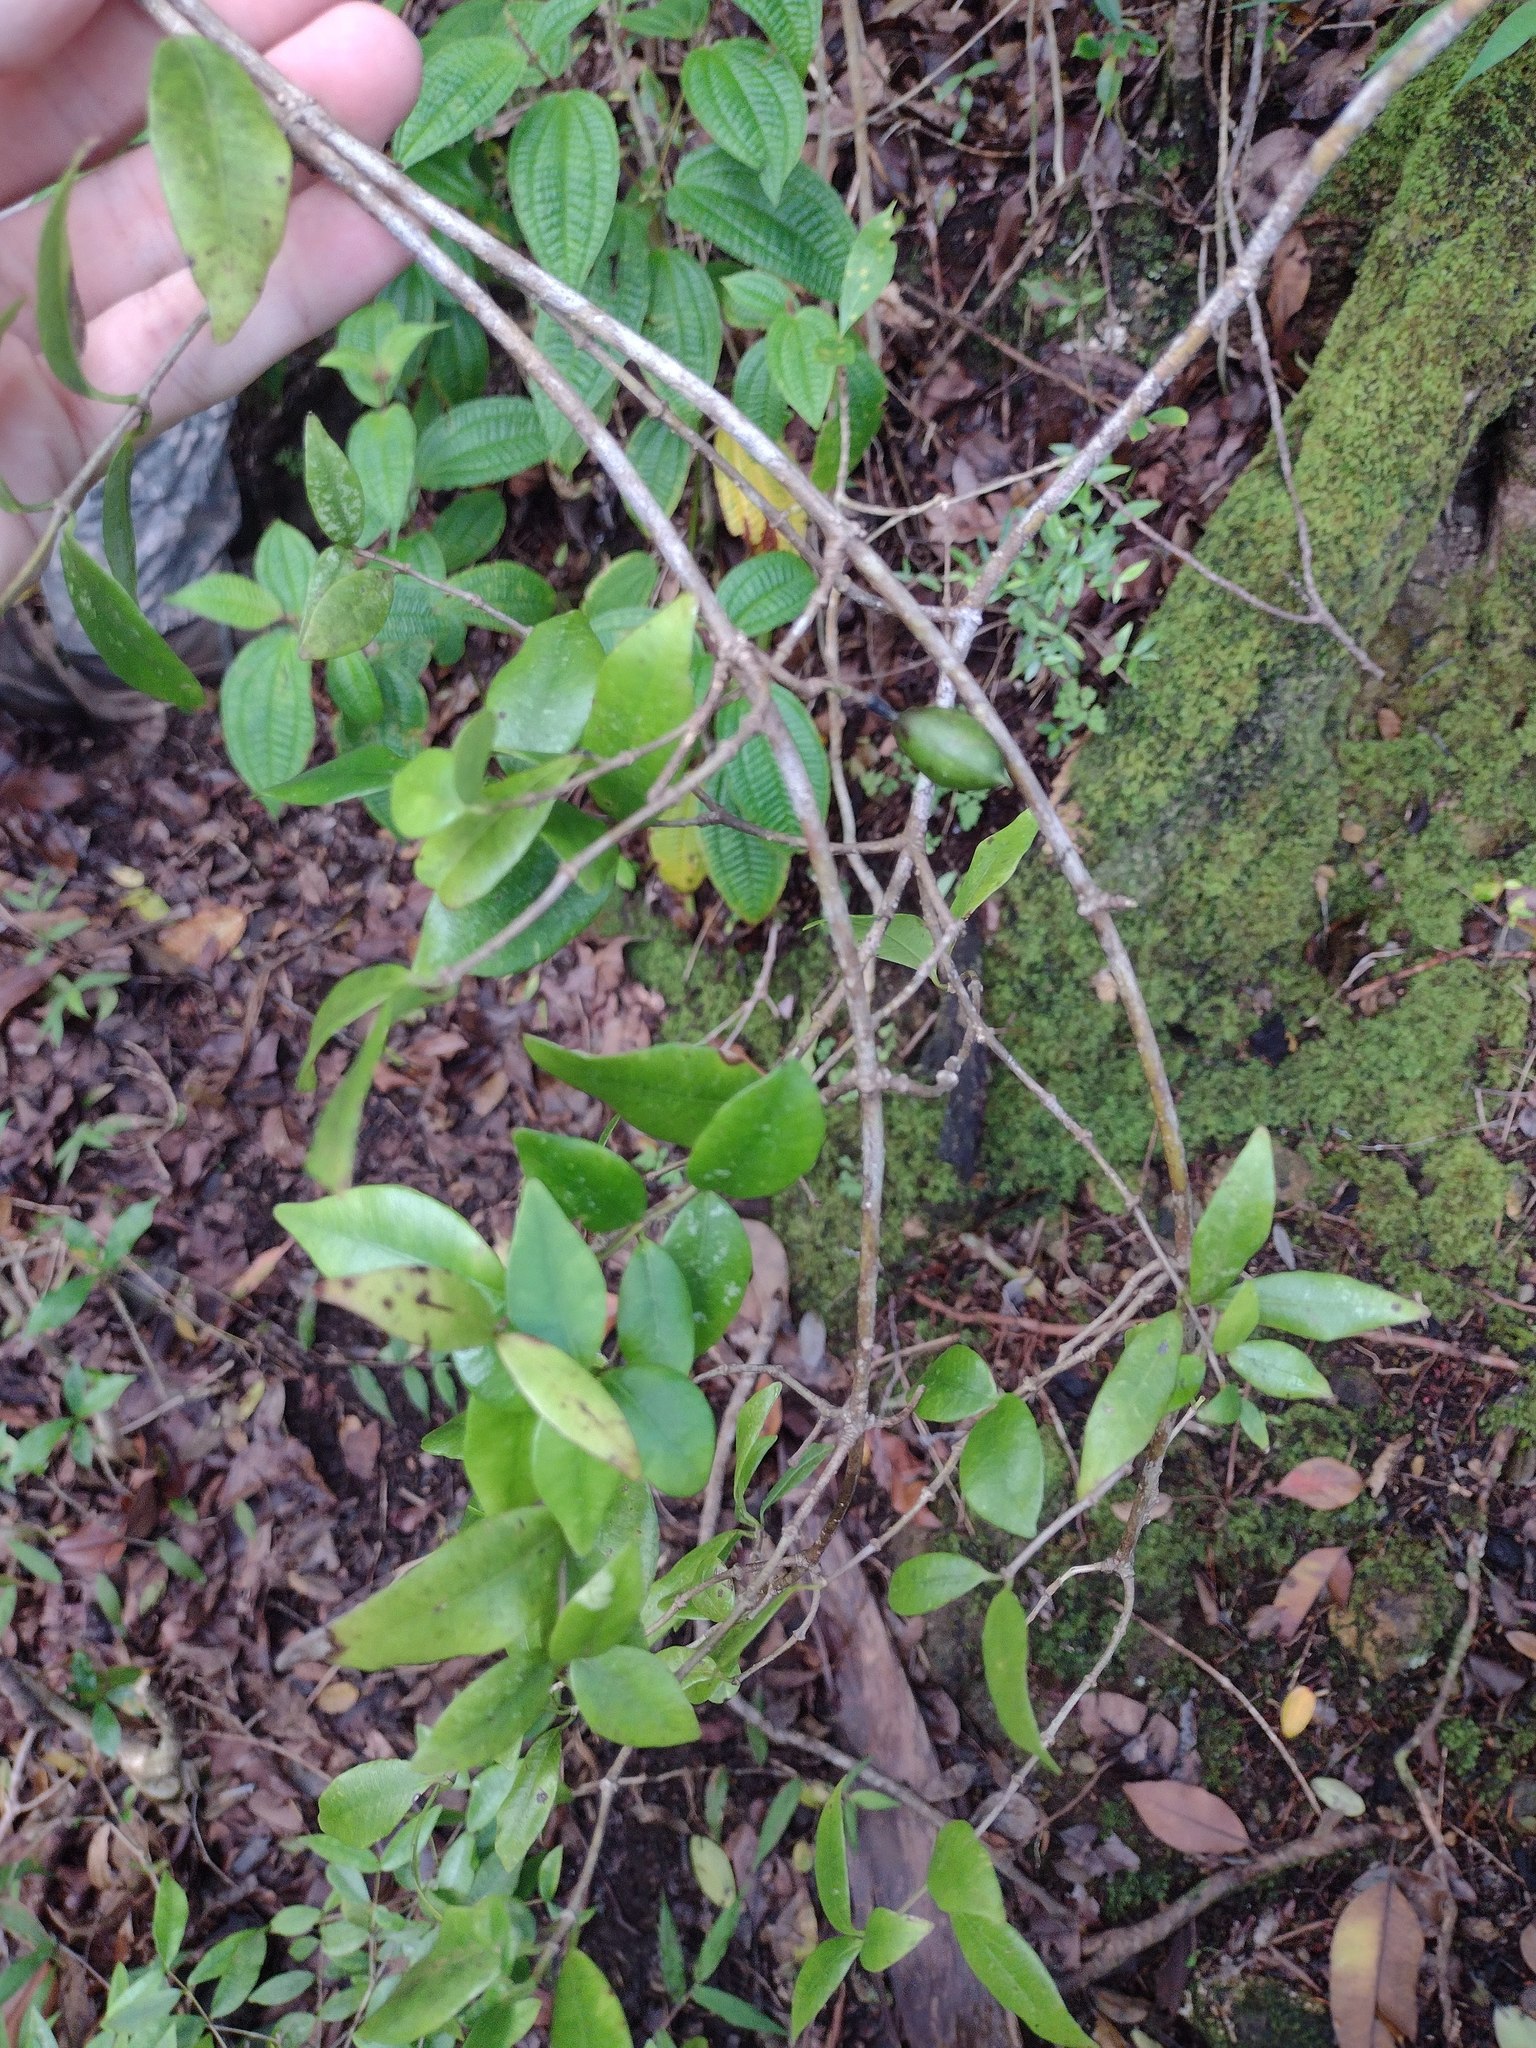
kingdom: Plantae
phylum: Tracheophyta
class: Magnoliopsida
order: Gentianales
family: Apocynaceae
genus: Alyxia
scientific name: Alyxia stellata
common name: Maile
